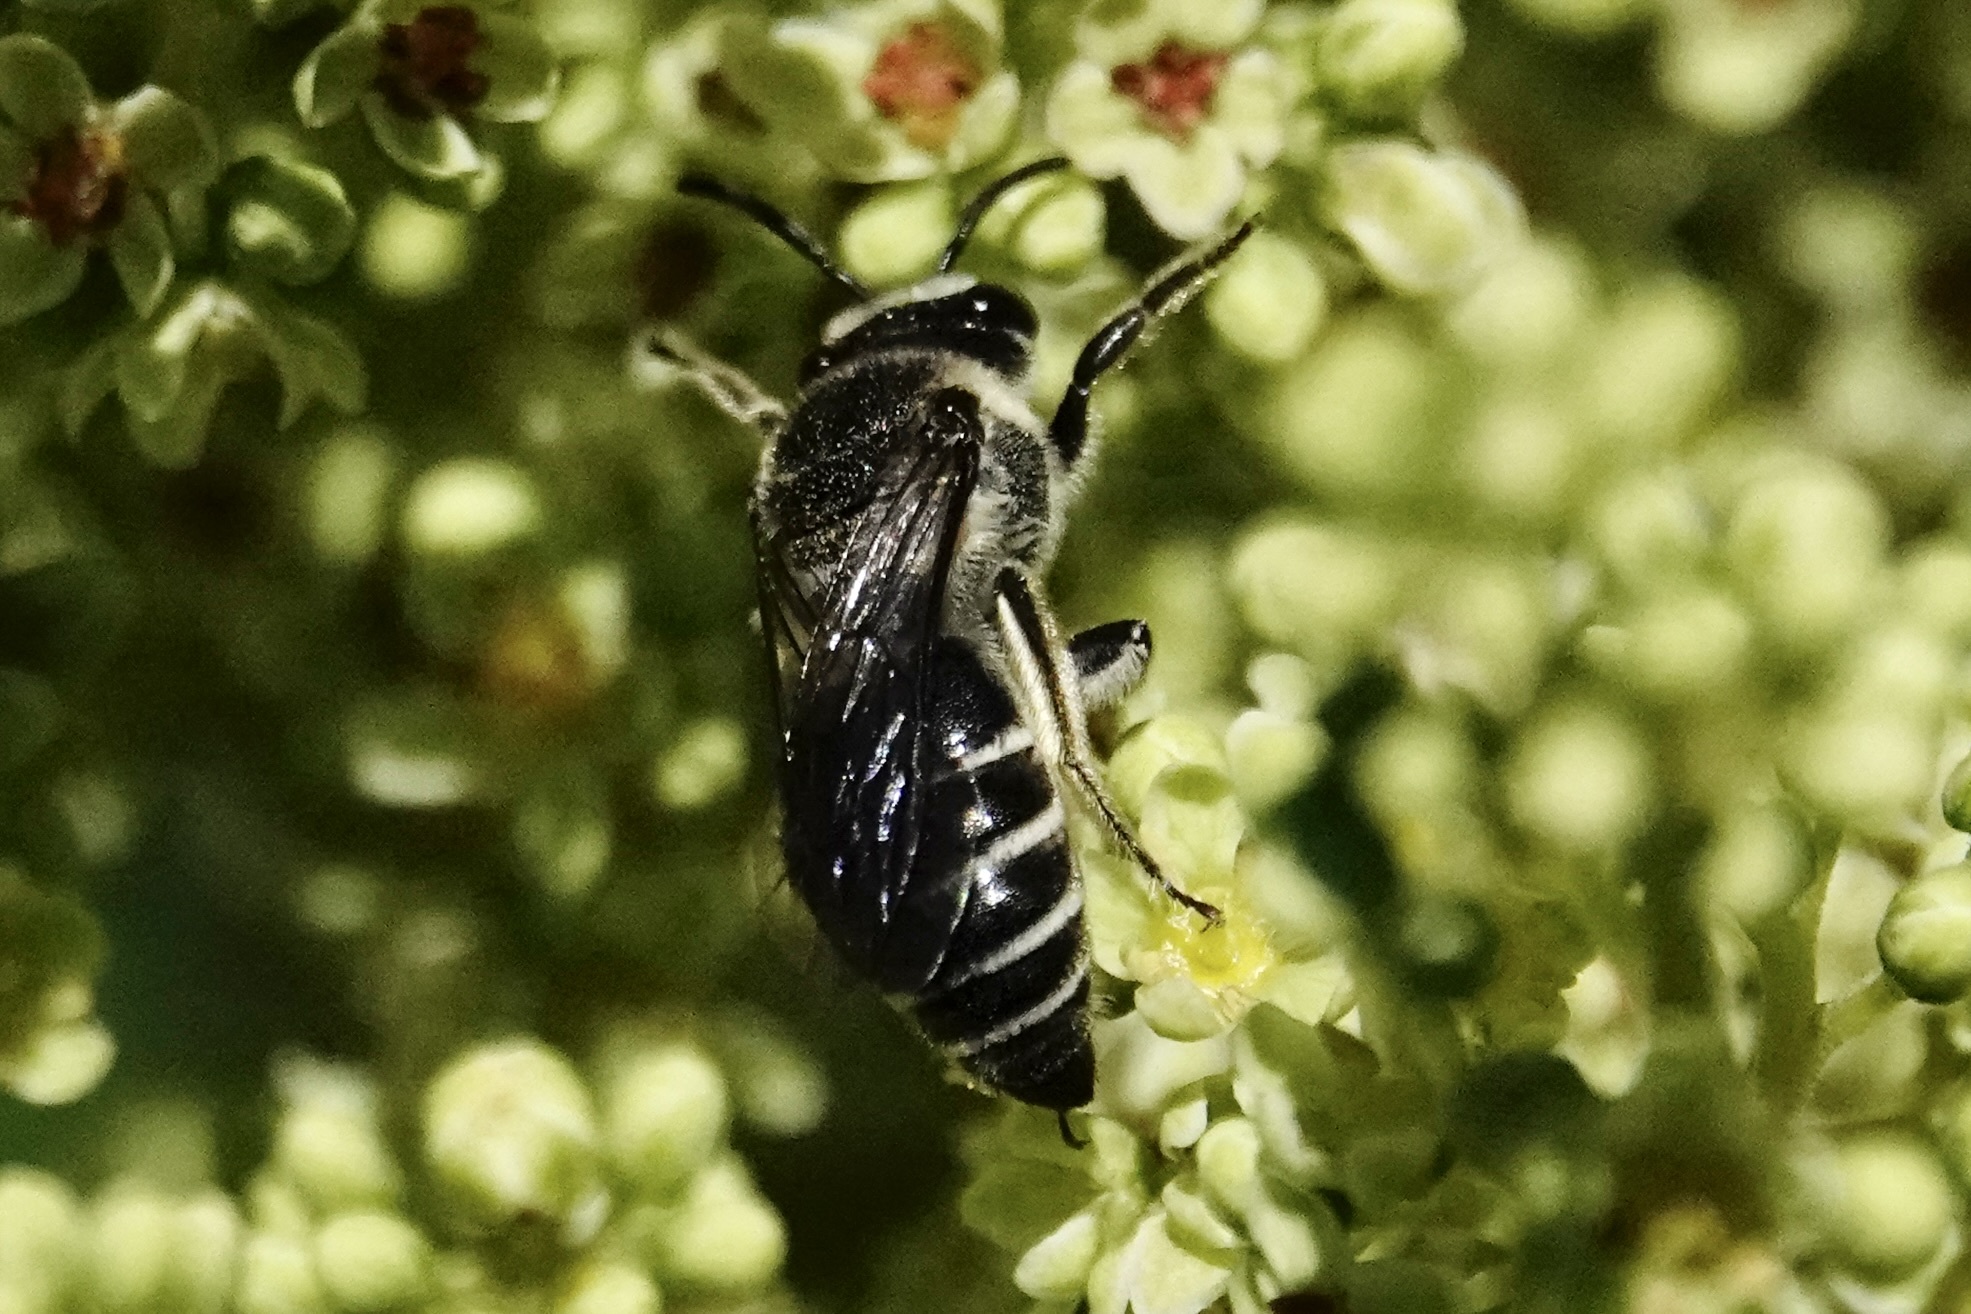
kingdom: Animalia
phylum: Arthropoda
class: Insecta
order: Hymenoptera
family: Colletidae
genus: Colletes
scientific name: Colletes nudus
